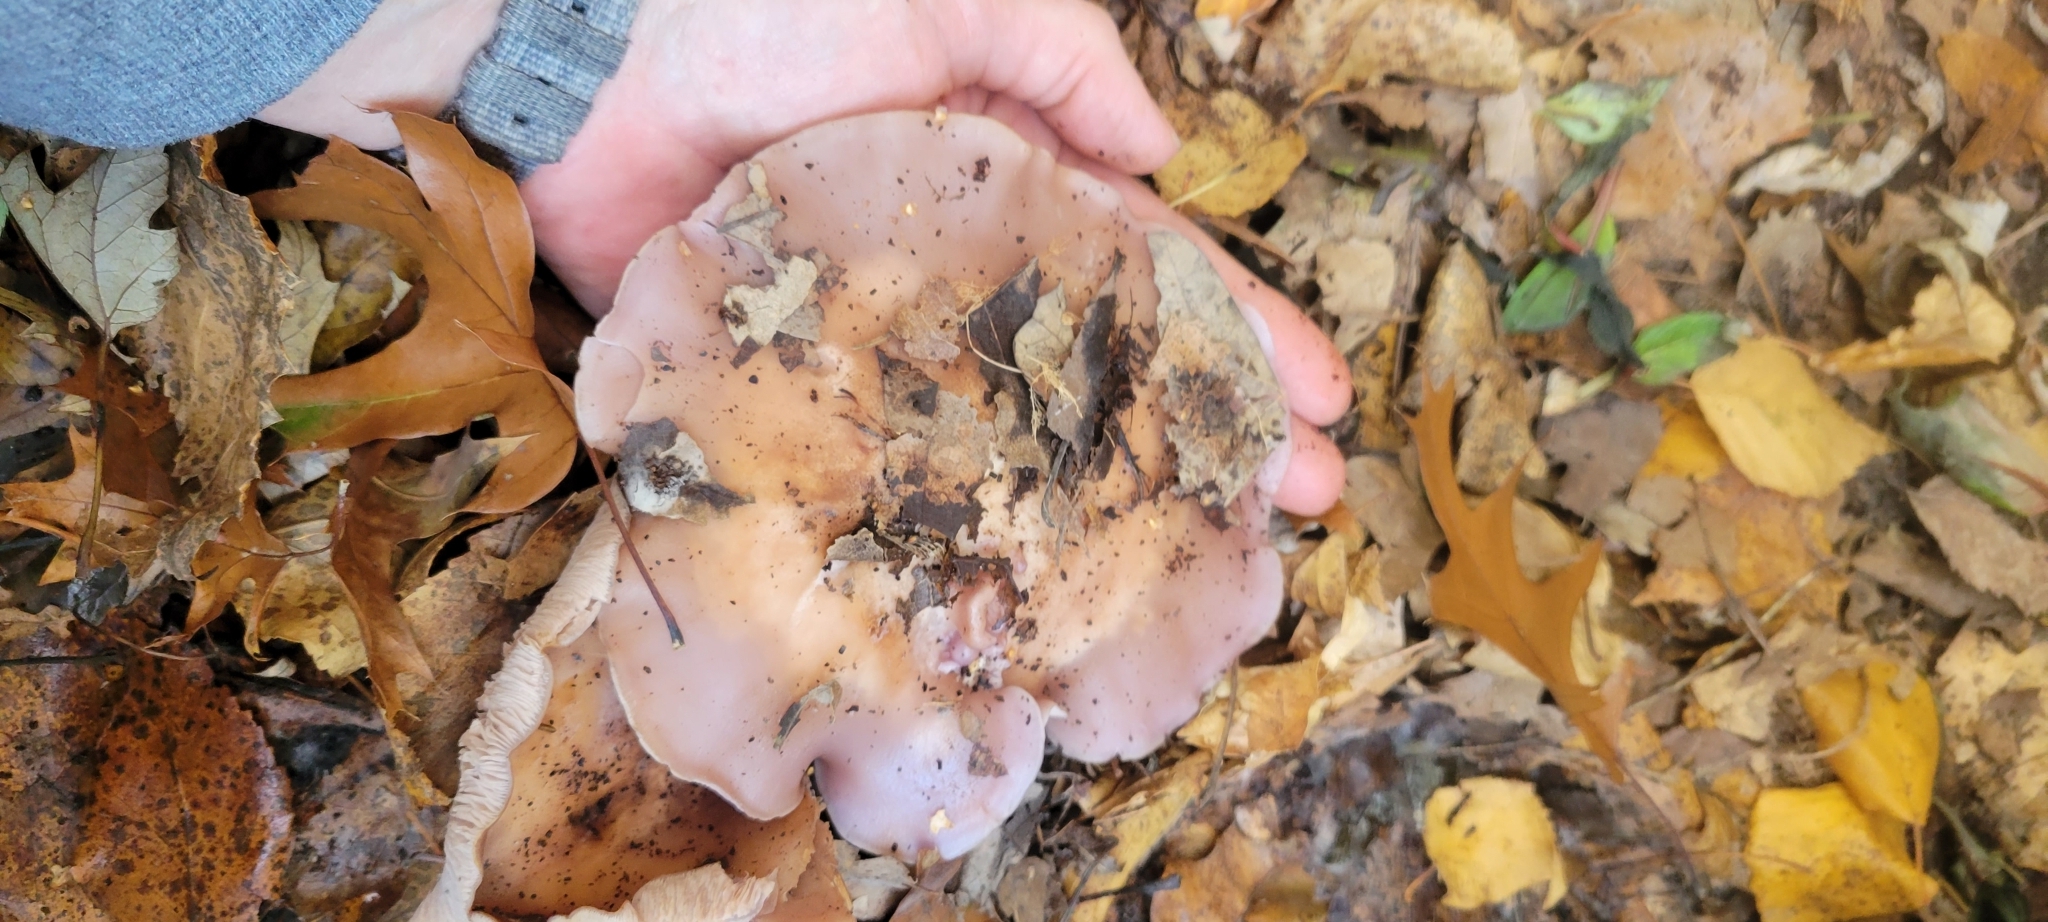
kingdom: Fungi
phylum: Basidiomycota
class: Agaricomycetes
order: Agaricales
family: Tricholomataceae
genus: Collybia
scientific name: Collybia
